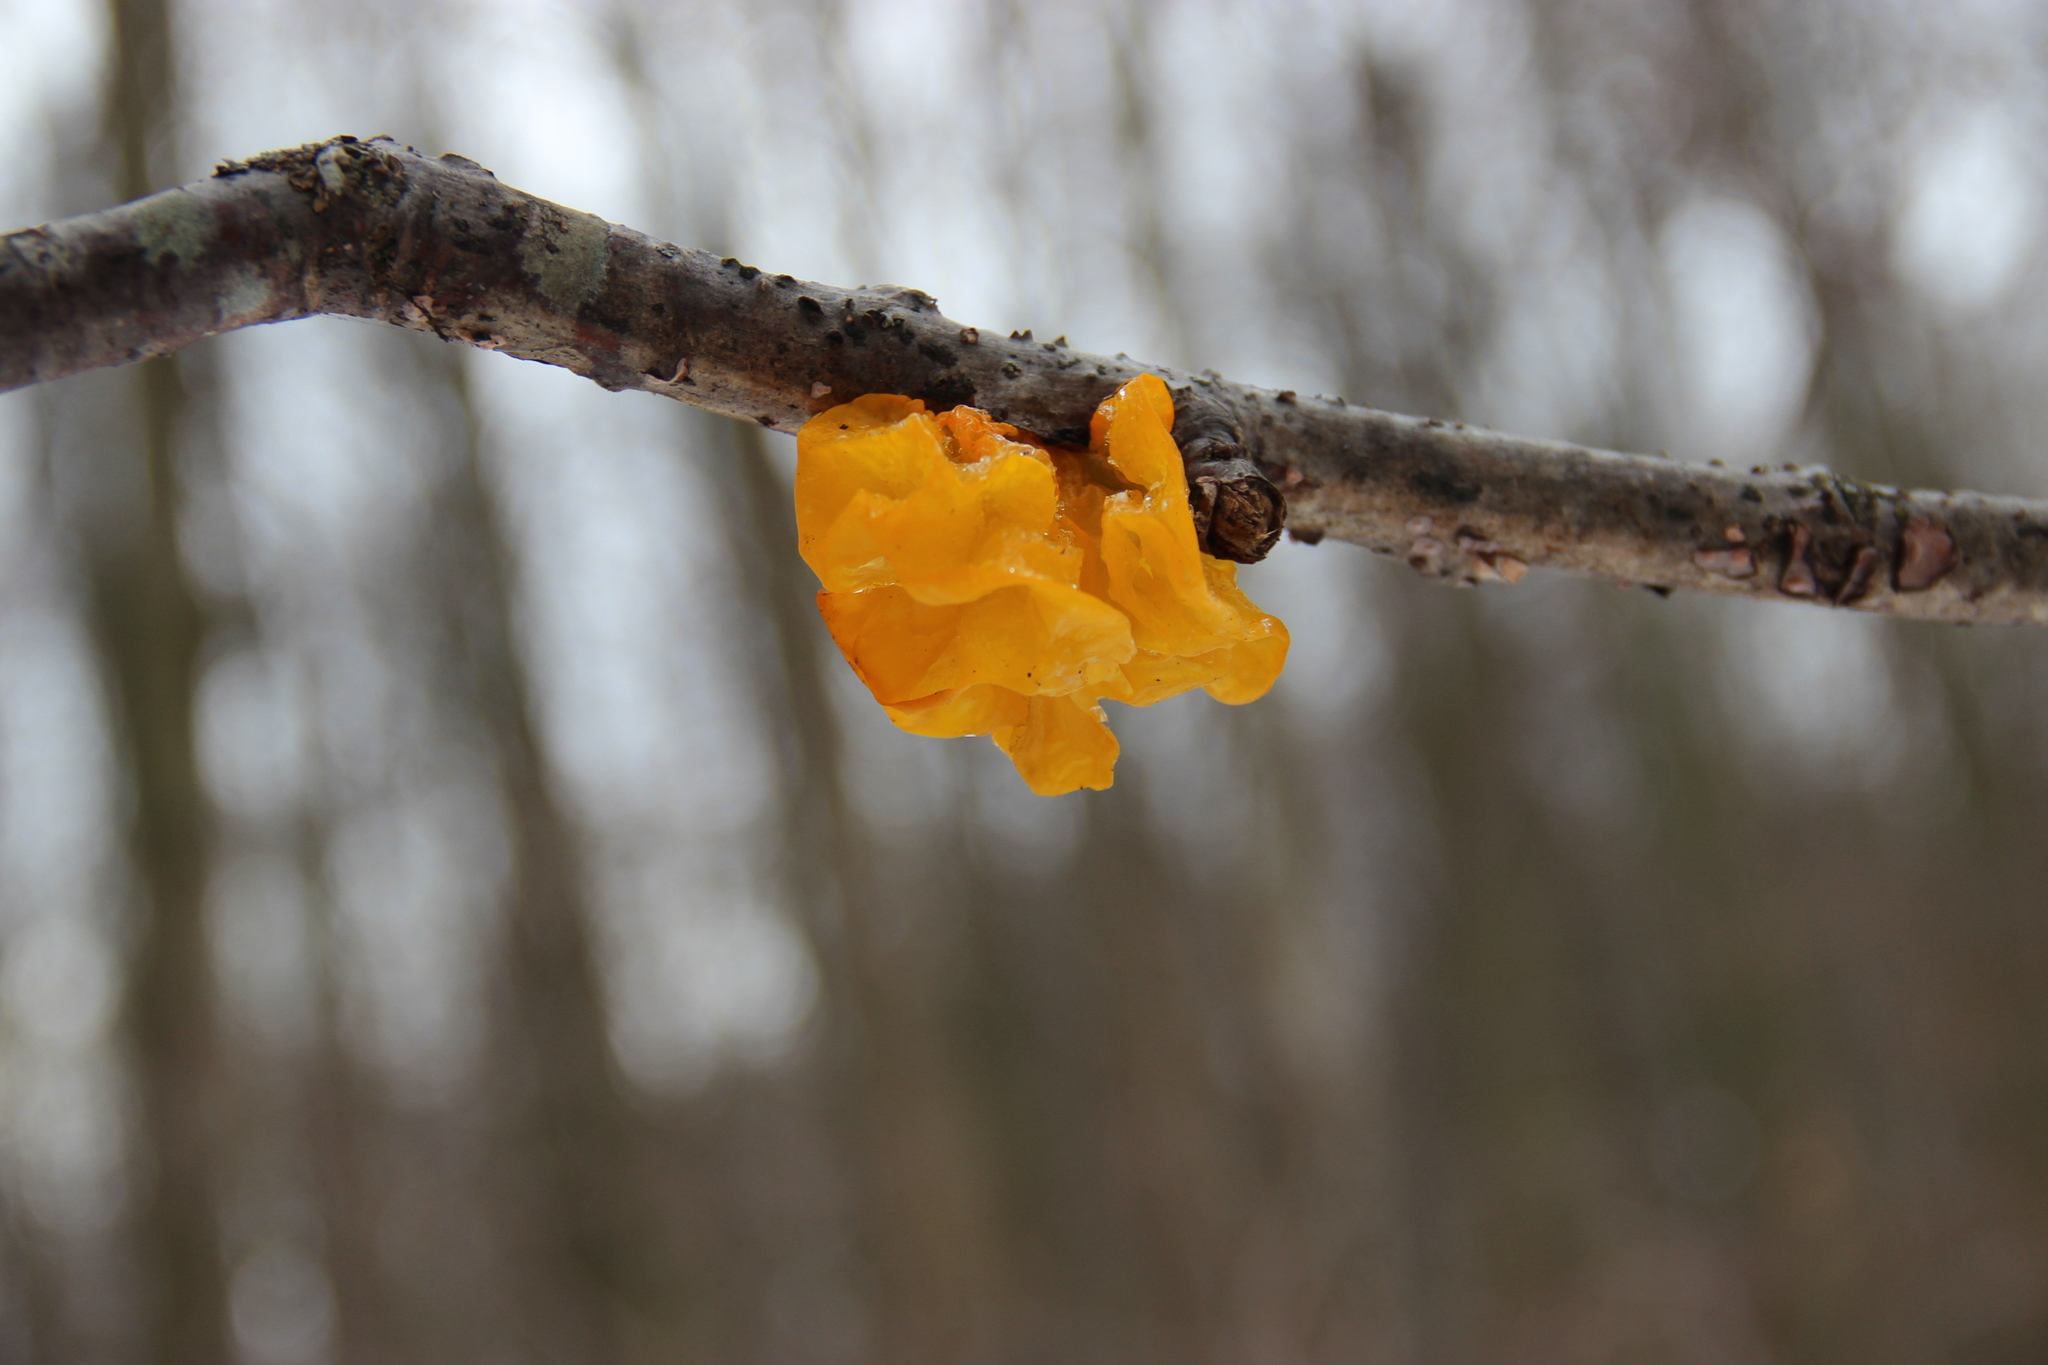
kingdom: Fungi
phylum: Basidiomycota
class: Tremellomycetes
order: Tremellales
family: Tremellaceae
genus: Tremella
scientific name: Tremella mesenterica
